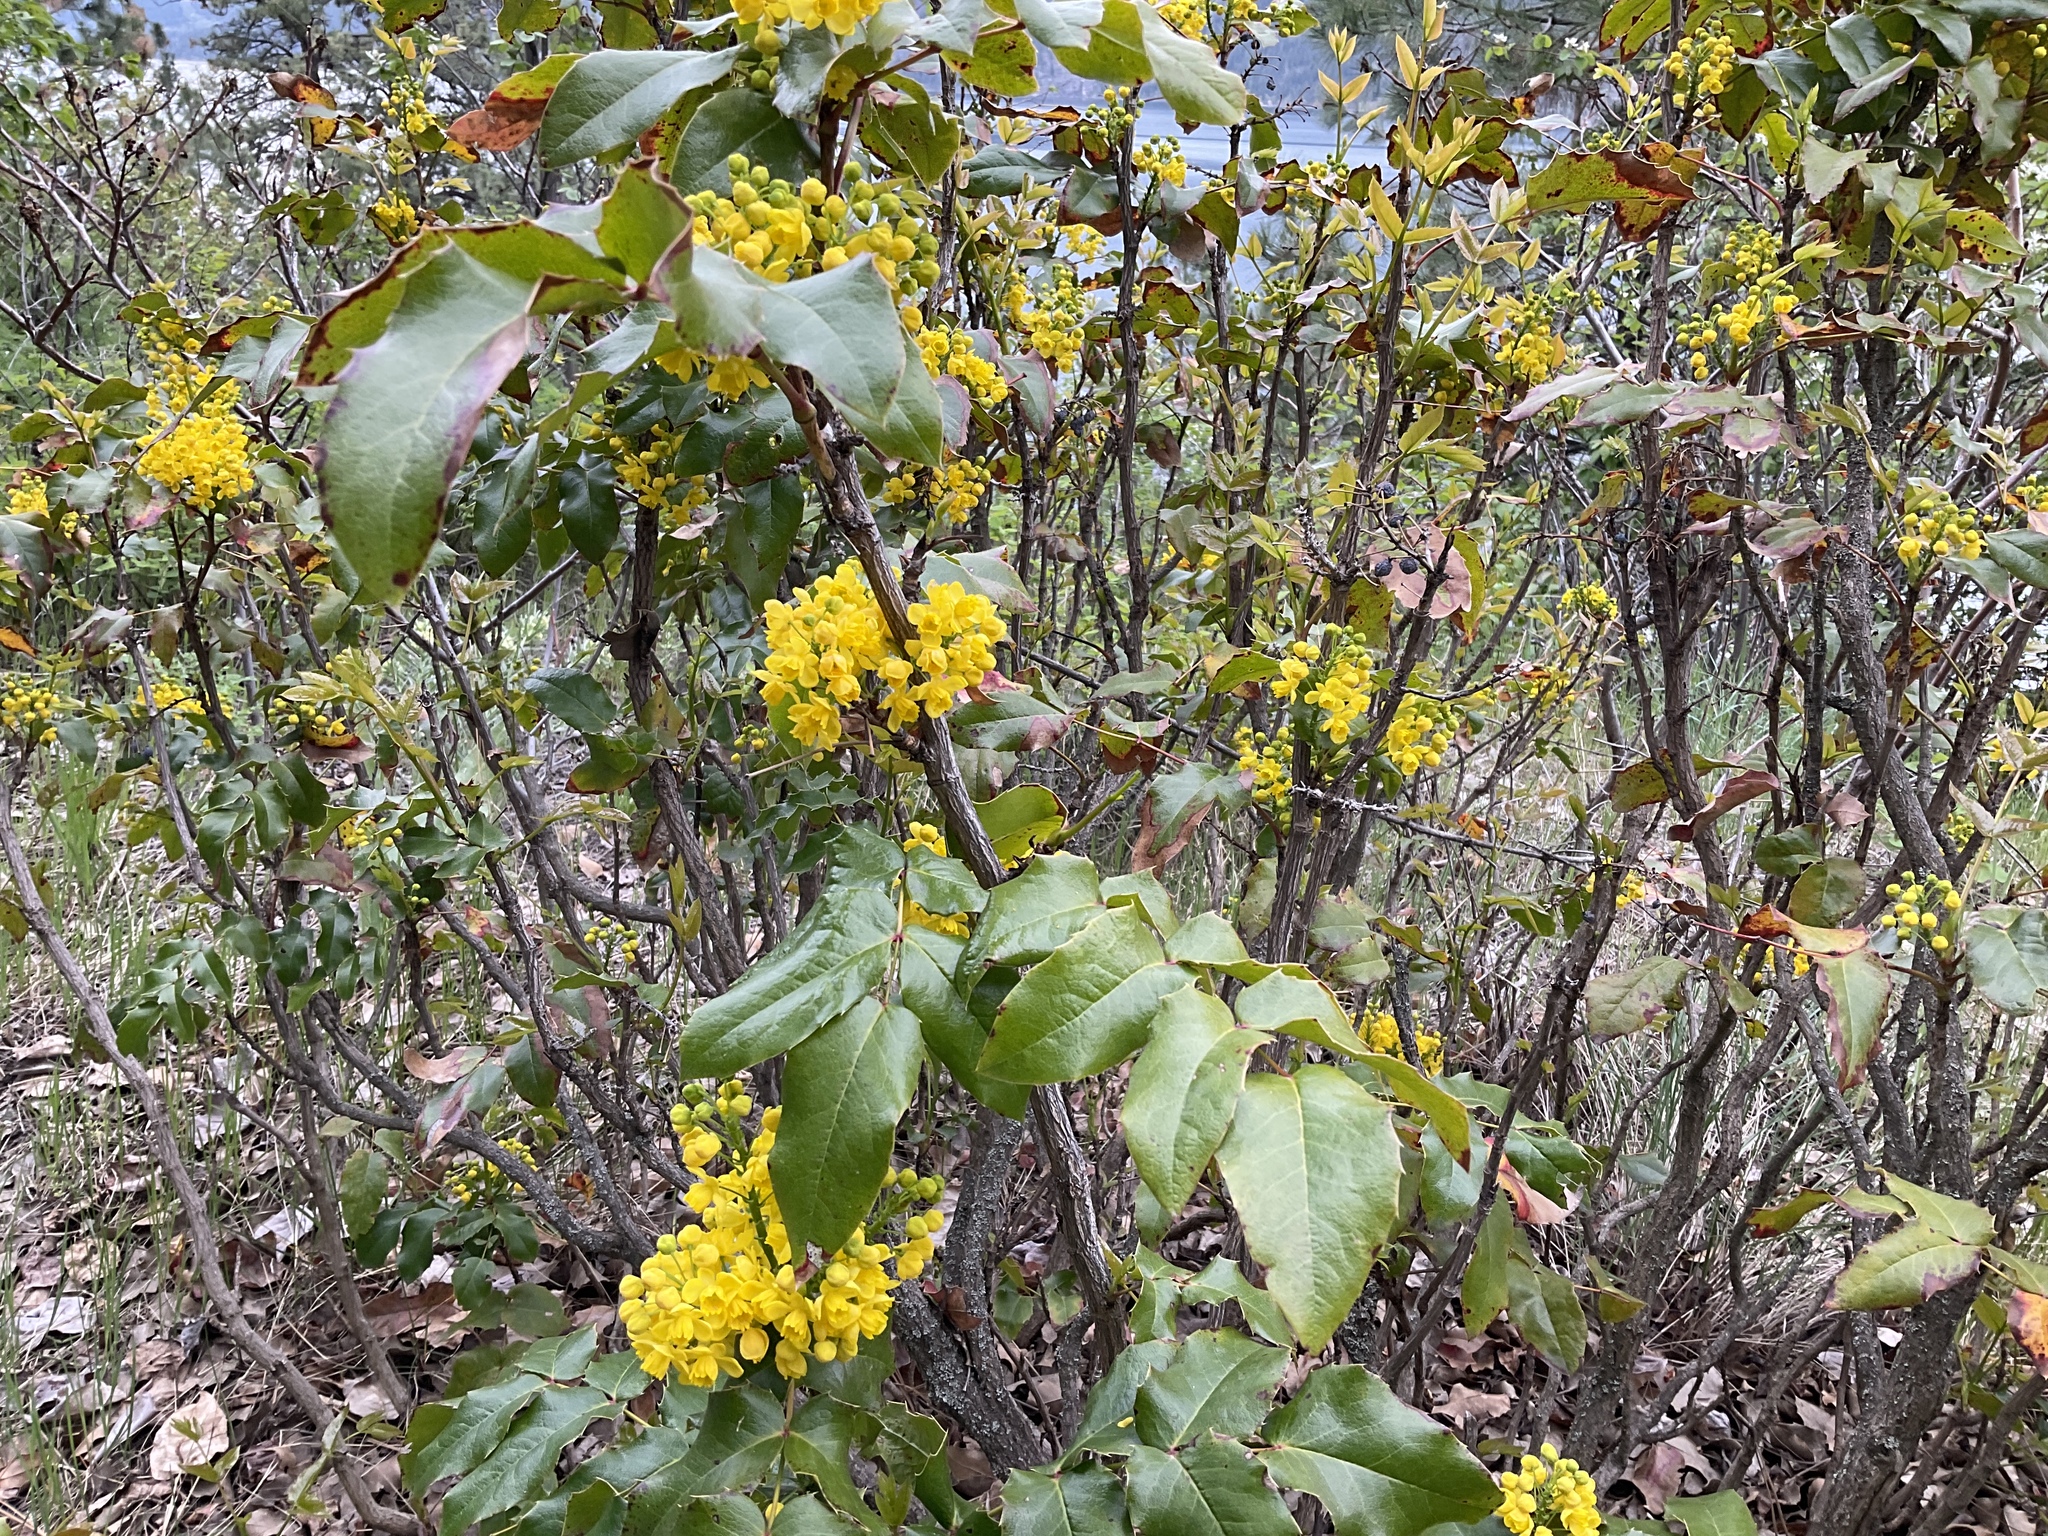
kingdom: Plantae
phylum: Tracheophyta
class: Magnoliopsida
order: Ranunculales
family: Berberidaceae
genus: Mahonia
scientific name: Mahonia aquifolium
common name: Oregon-grape
